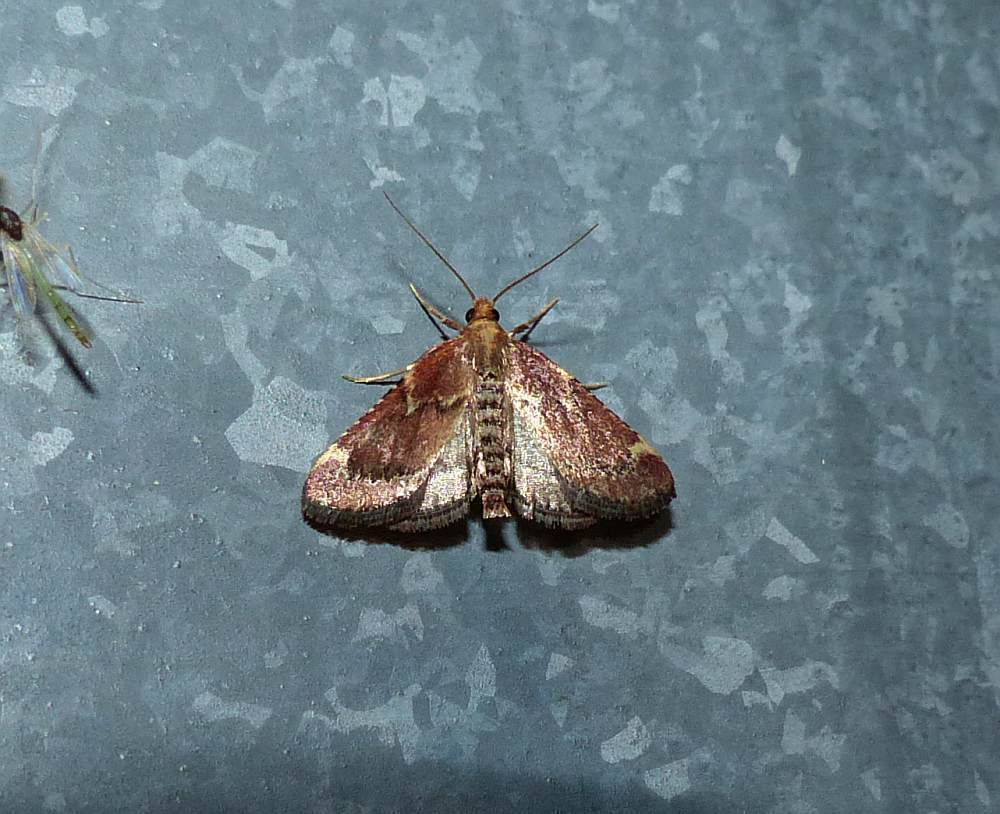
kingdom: Animalia
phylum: Arthropoda
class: Insecta
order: Lepidoptera
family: Pyralidae
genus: Hypsopygia
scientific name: Hypsopygia intermedialis
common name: Red-shawled moth
